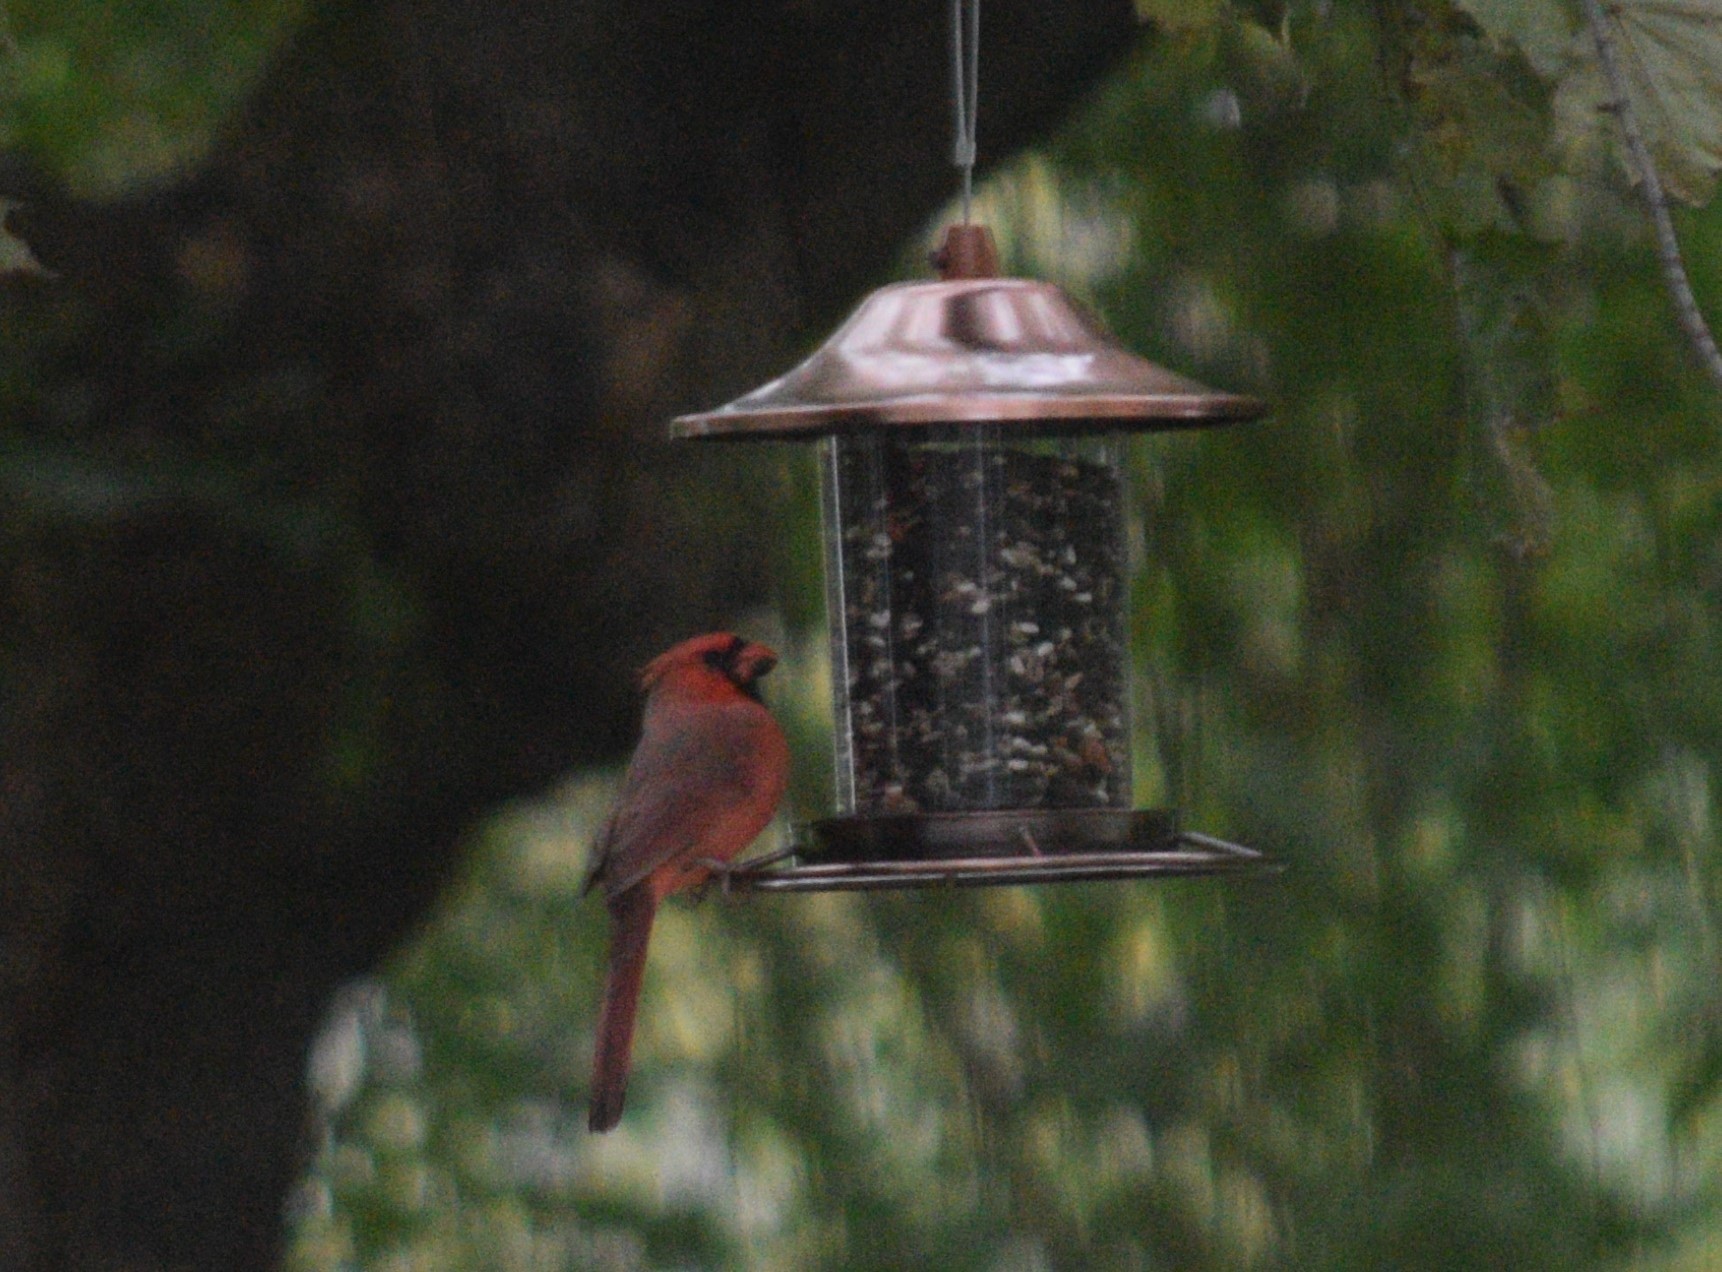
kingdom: Animalia
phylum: Chordata
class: Aves
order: Passeriformes
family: Cardinalidae
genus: Cardinalis
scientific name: Cardinalis cardinalis
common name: Northern cardinal
